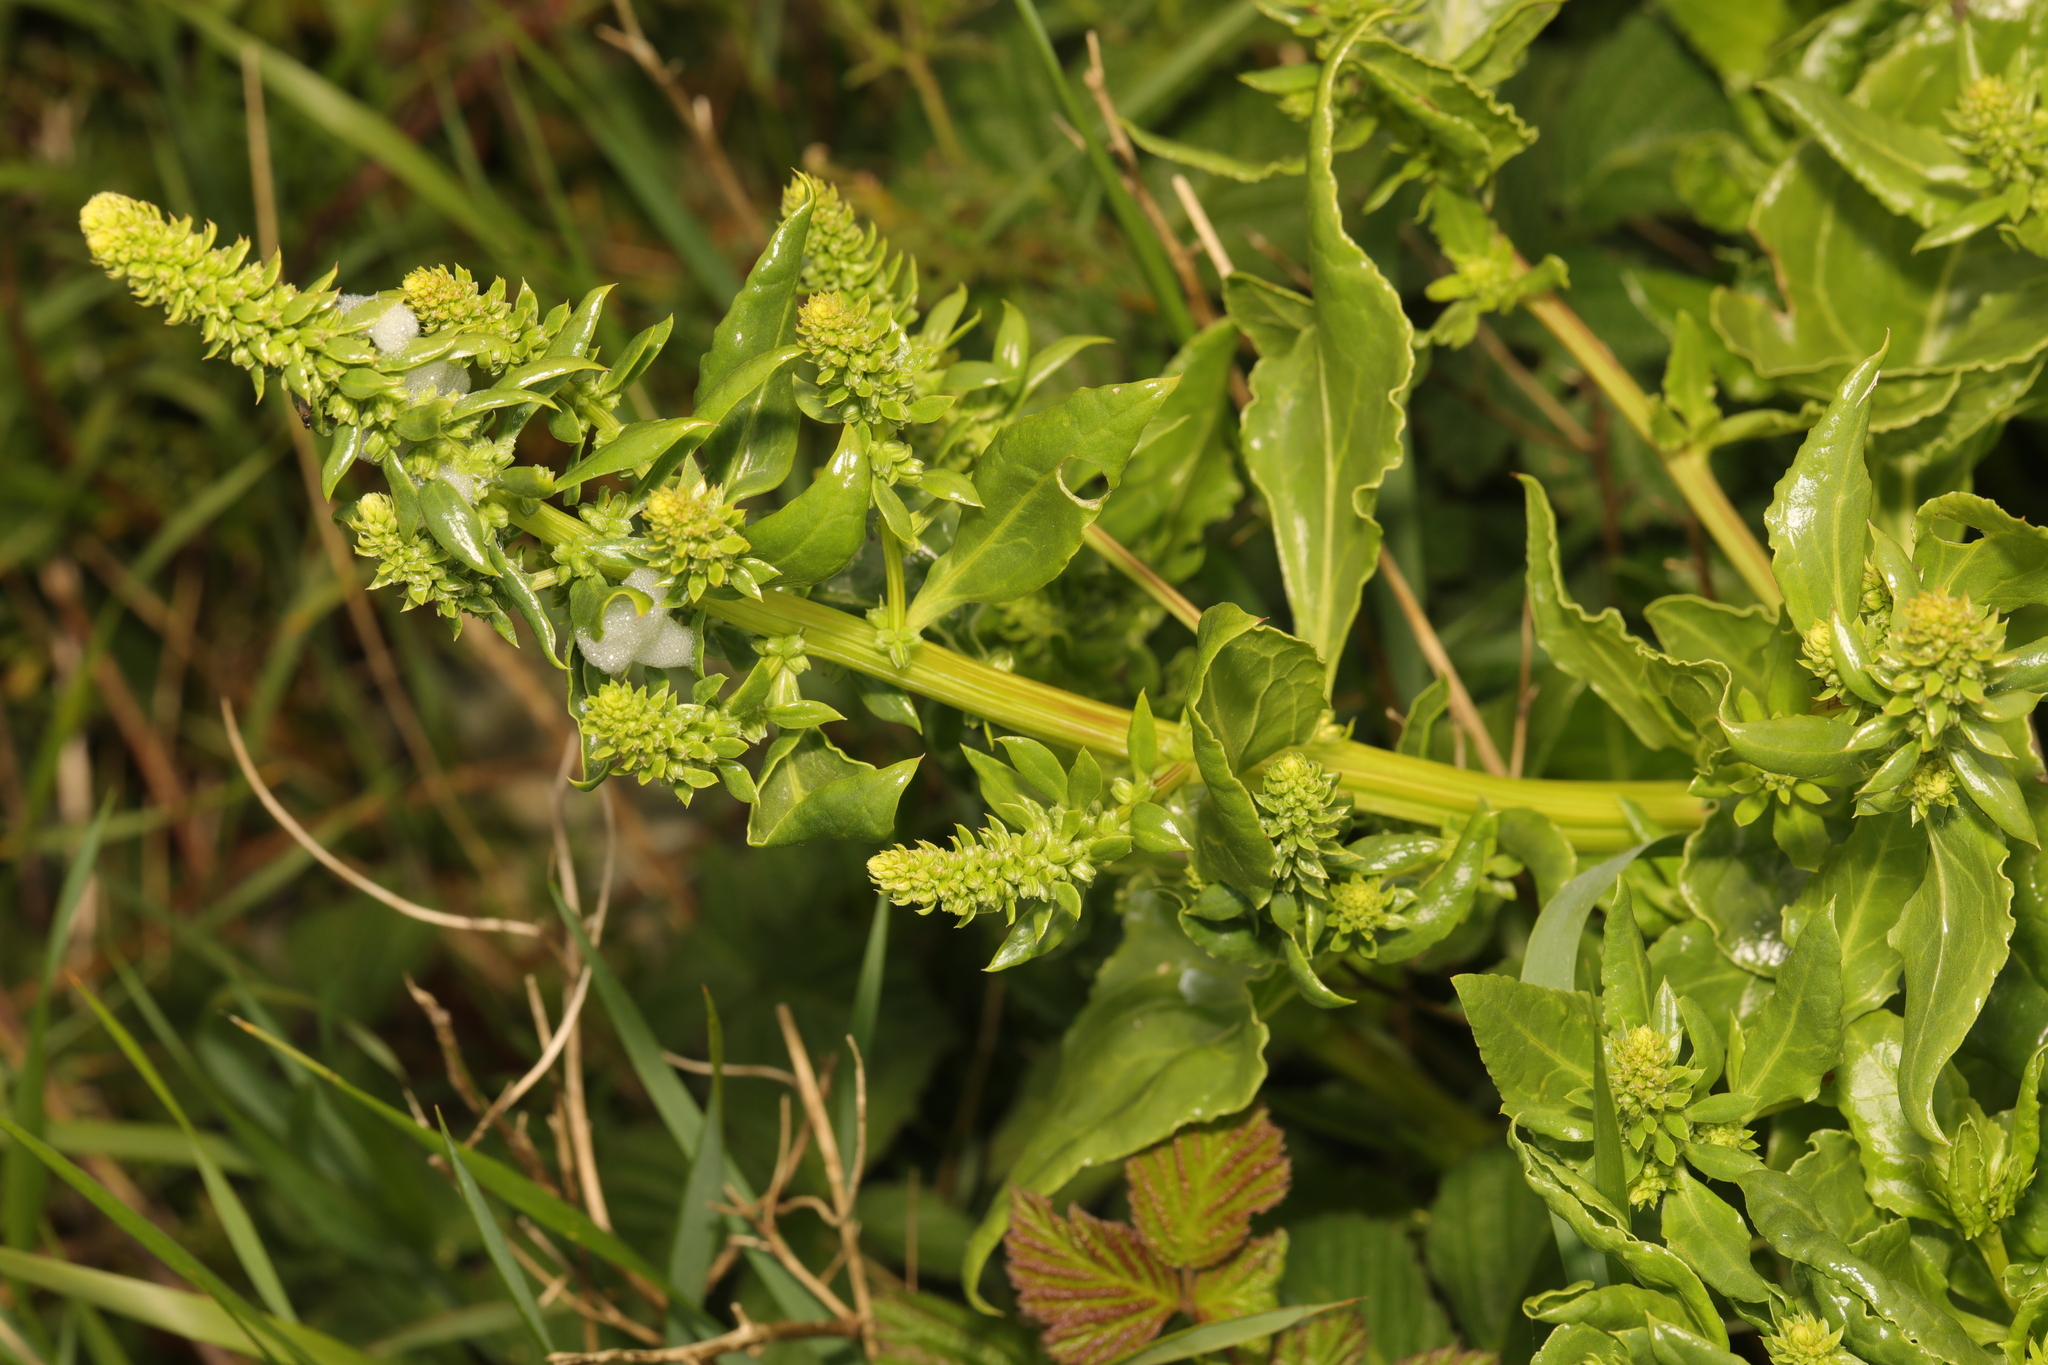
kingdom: Plantae
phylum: Tracheophyta
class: Magnoliopsida
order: Caryophyllales
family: Amaranthaceae
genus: Beta
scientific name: Beta vulgaris
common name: Beet
